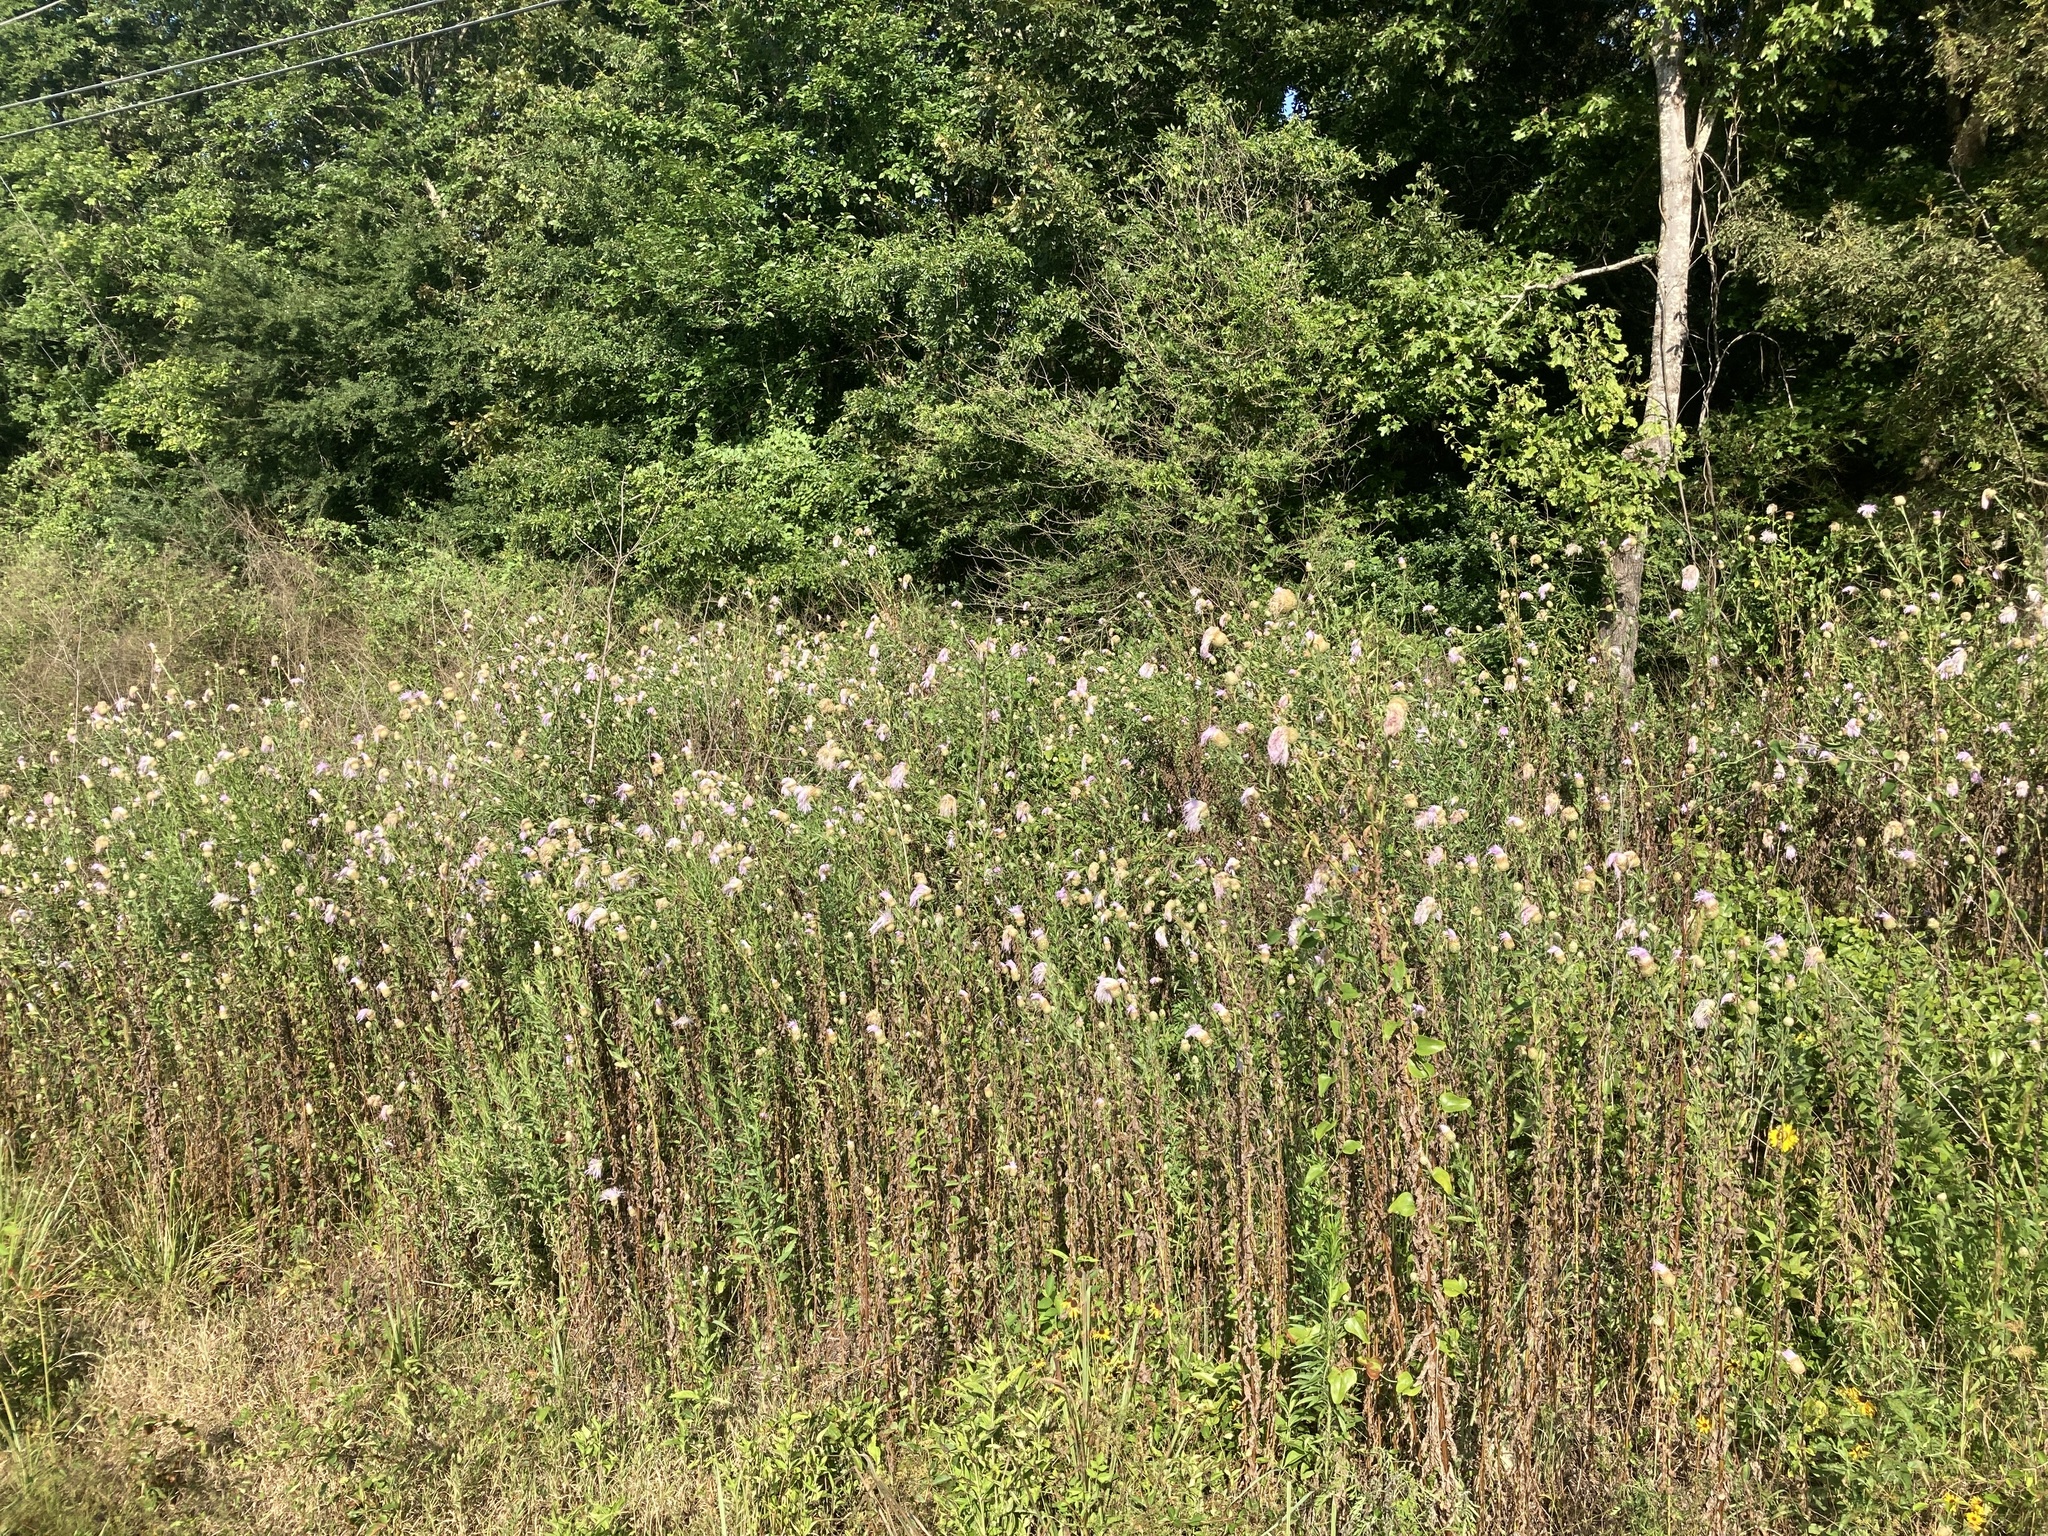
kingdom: Plantae
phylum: Tracheophyta
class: Magnoliopsida
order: Asterales
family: Asteraceae
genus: Plectocephalus
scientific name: Plectocephalus americanus
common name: American basket-flower
